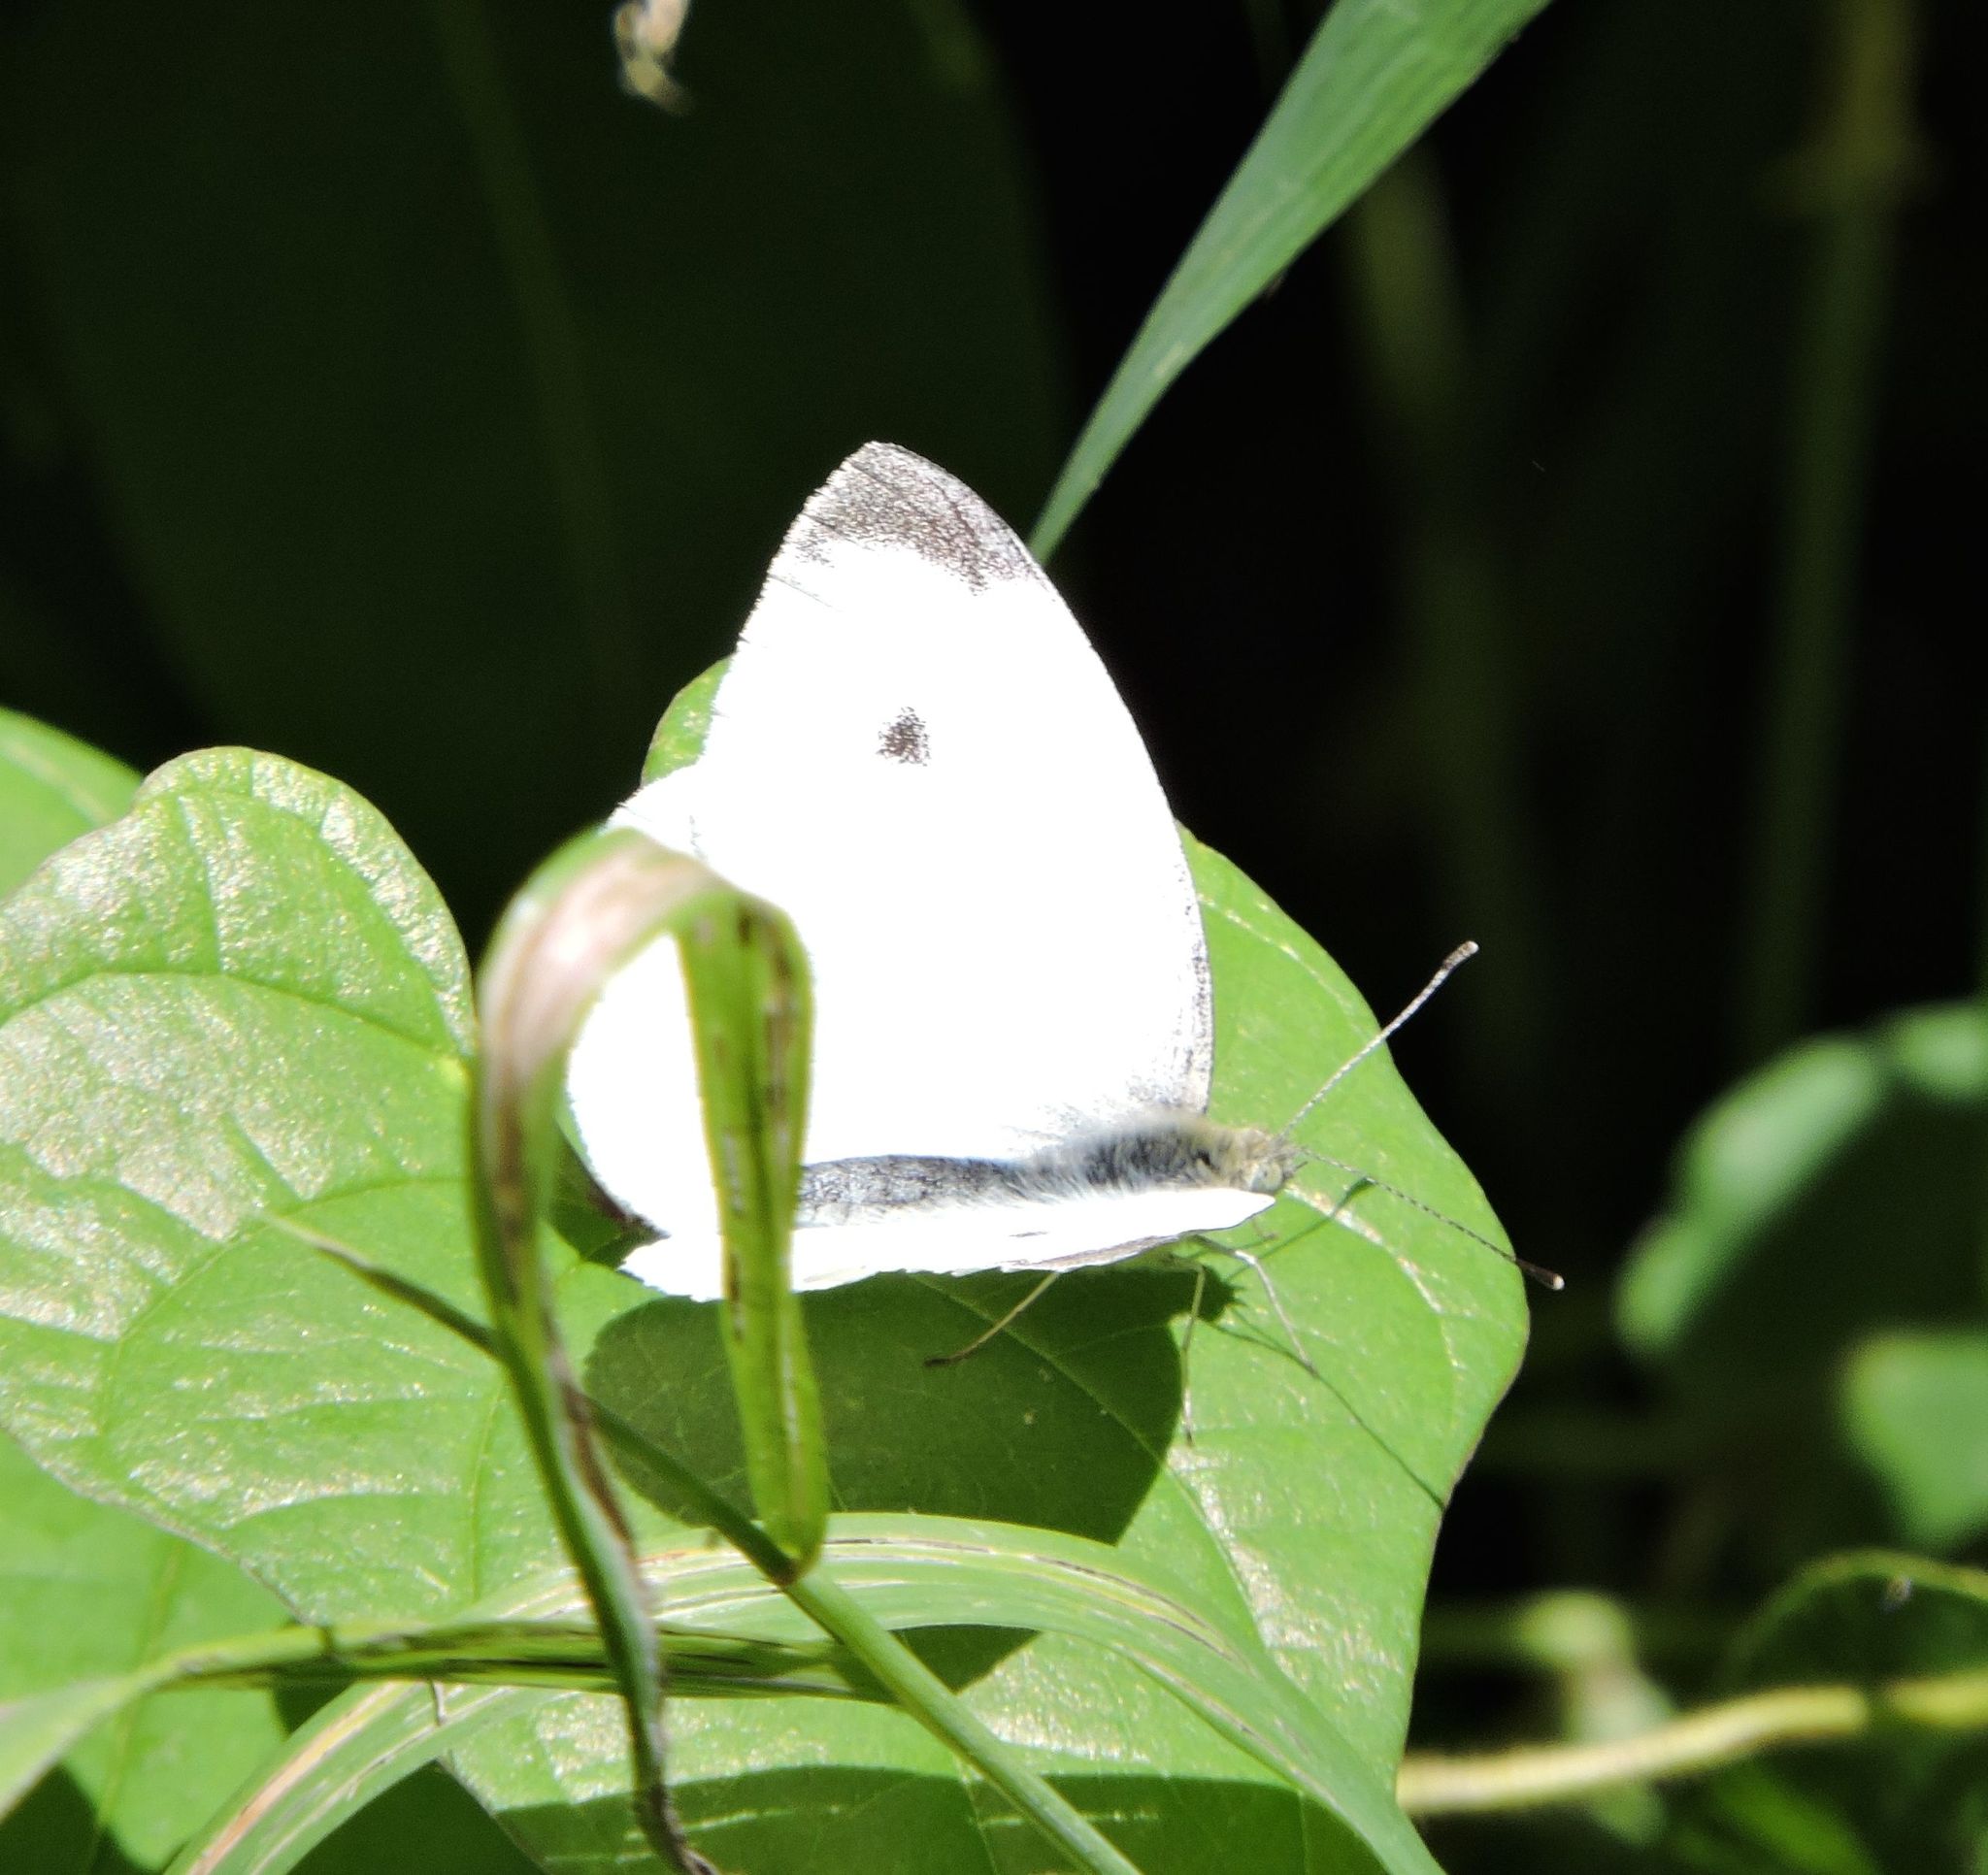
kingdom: Animalia
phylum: Arthropoda
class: Insecta
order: Lepidoptera
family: Pieridae
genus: Pieris
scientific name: Pieris rapae
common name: Small white
